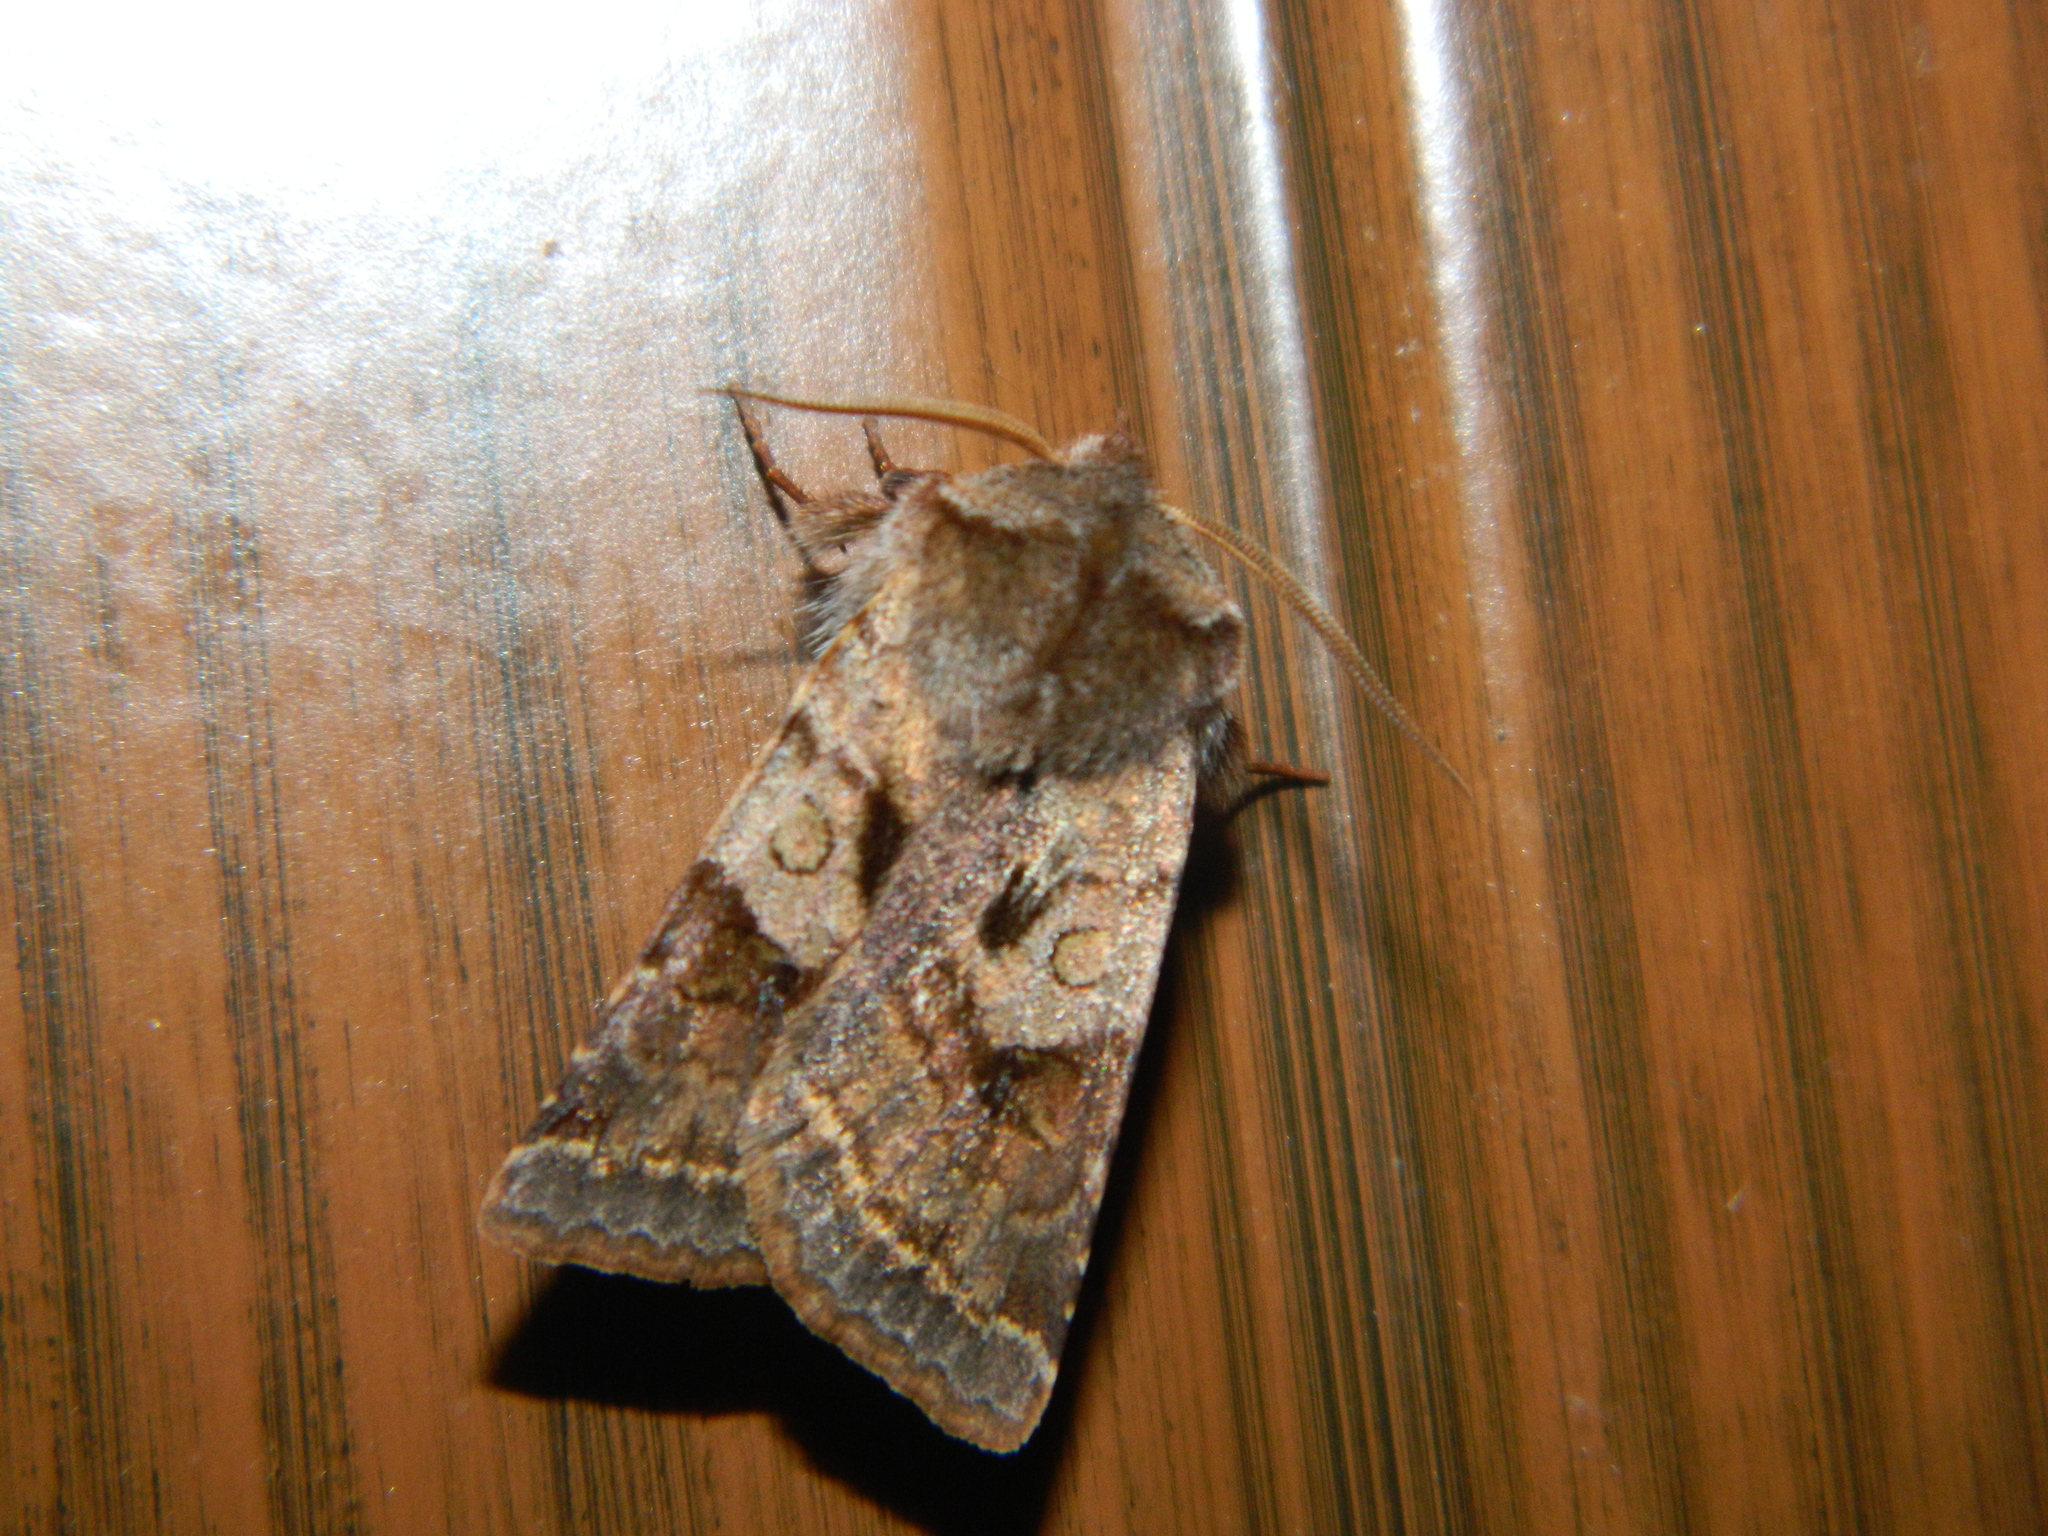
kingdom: Animalia
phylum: Arthropoda
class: Insecta
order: Lepidoptera
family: Noctuidae
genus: Cerastis
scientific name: Cerastis salicarum
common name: Willow dart
